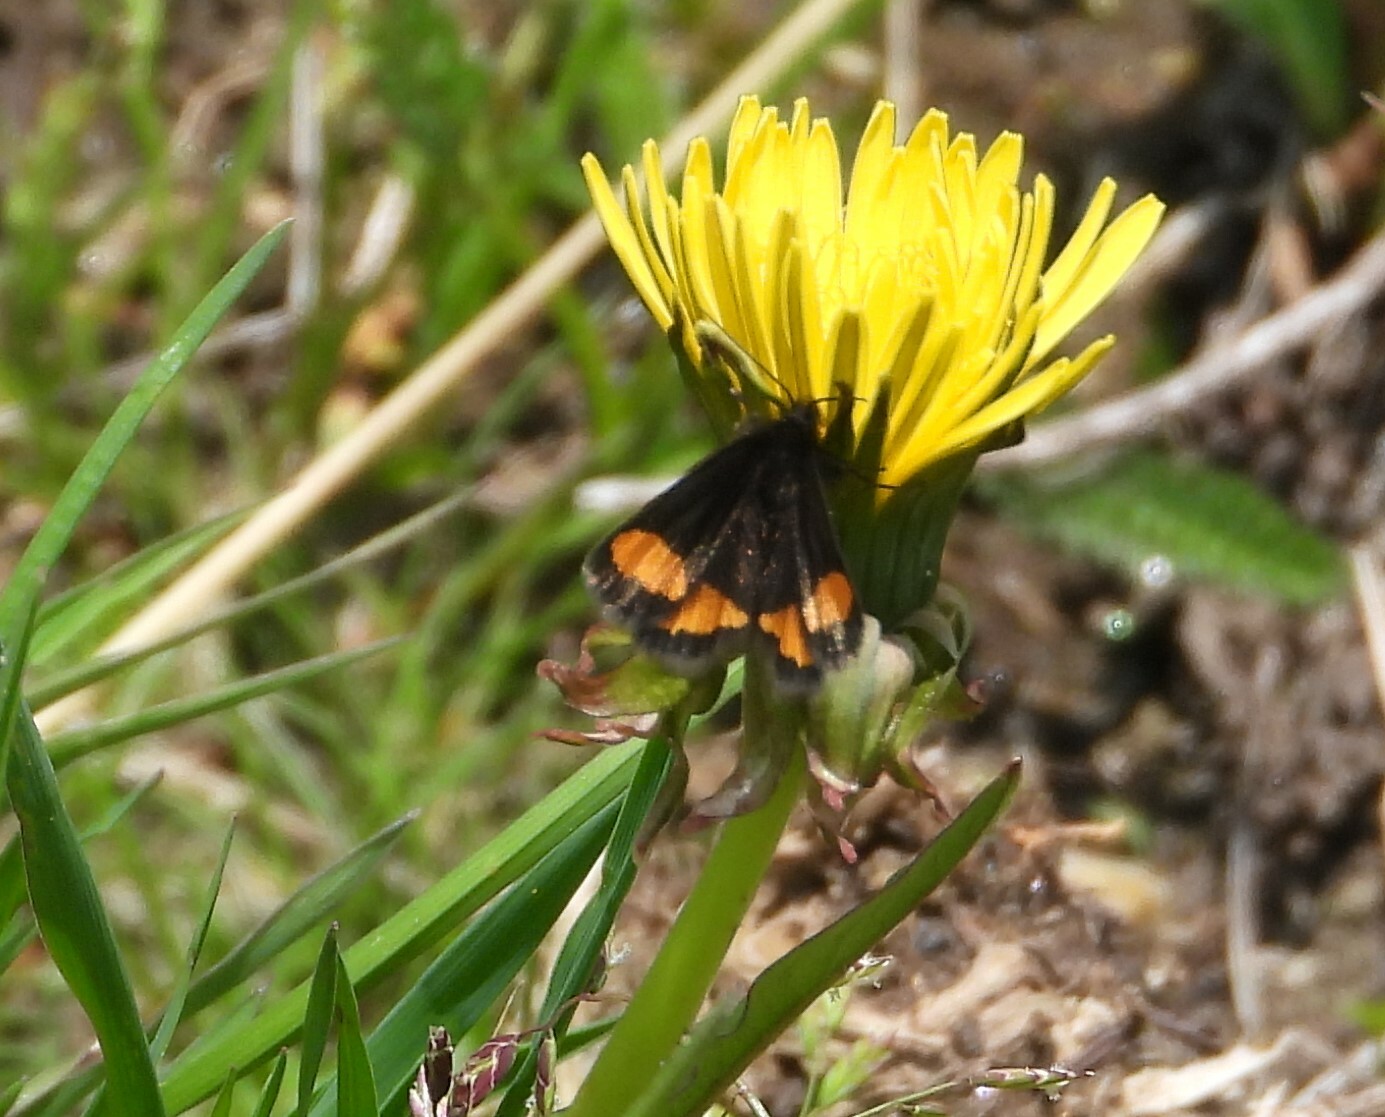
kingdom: Animalia
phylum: Arthropoda
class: Insecta
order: Lepidoptera
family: Geometridae
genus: Psodos
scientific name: Psodos quadrifaria
